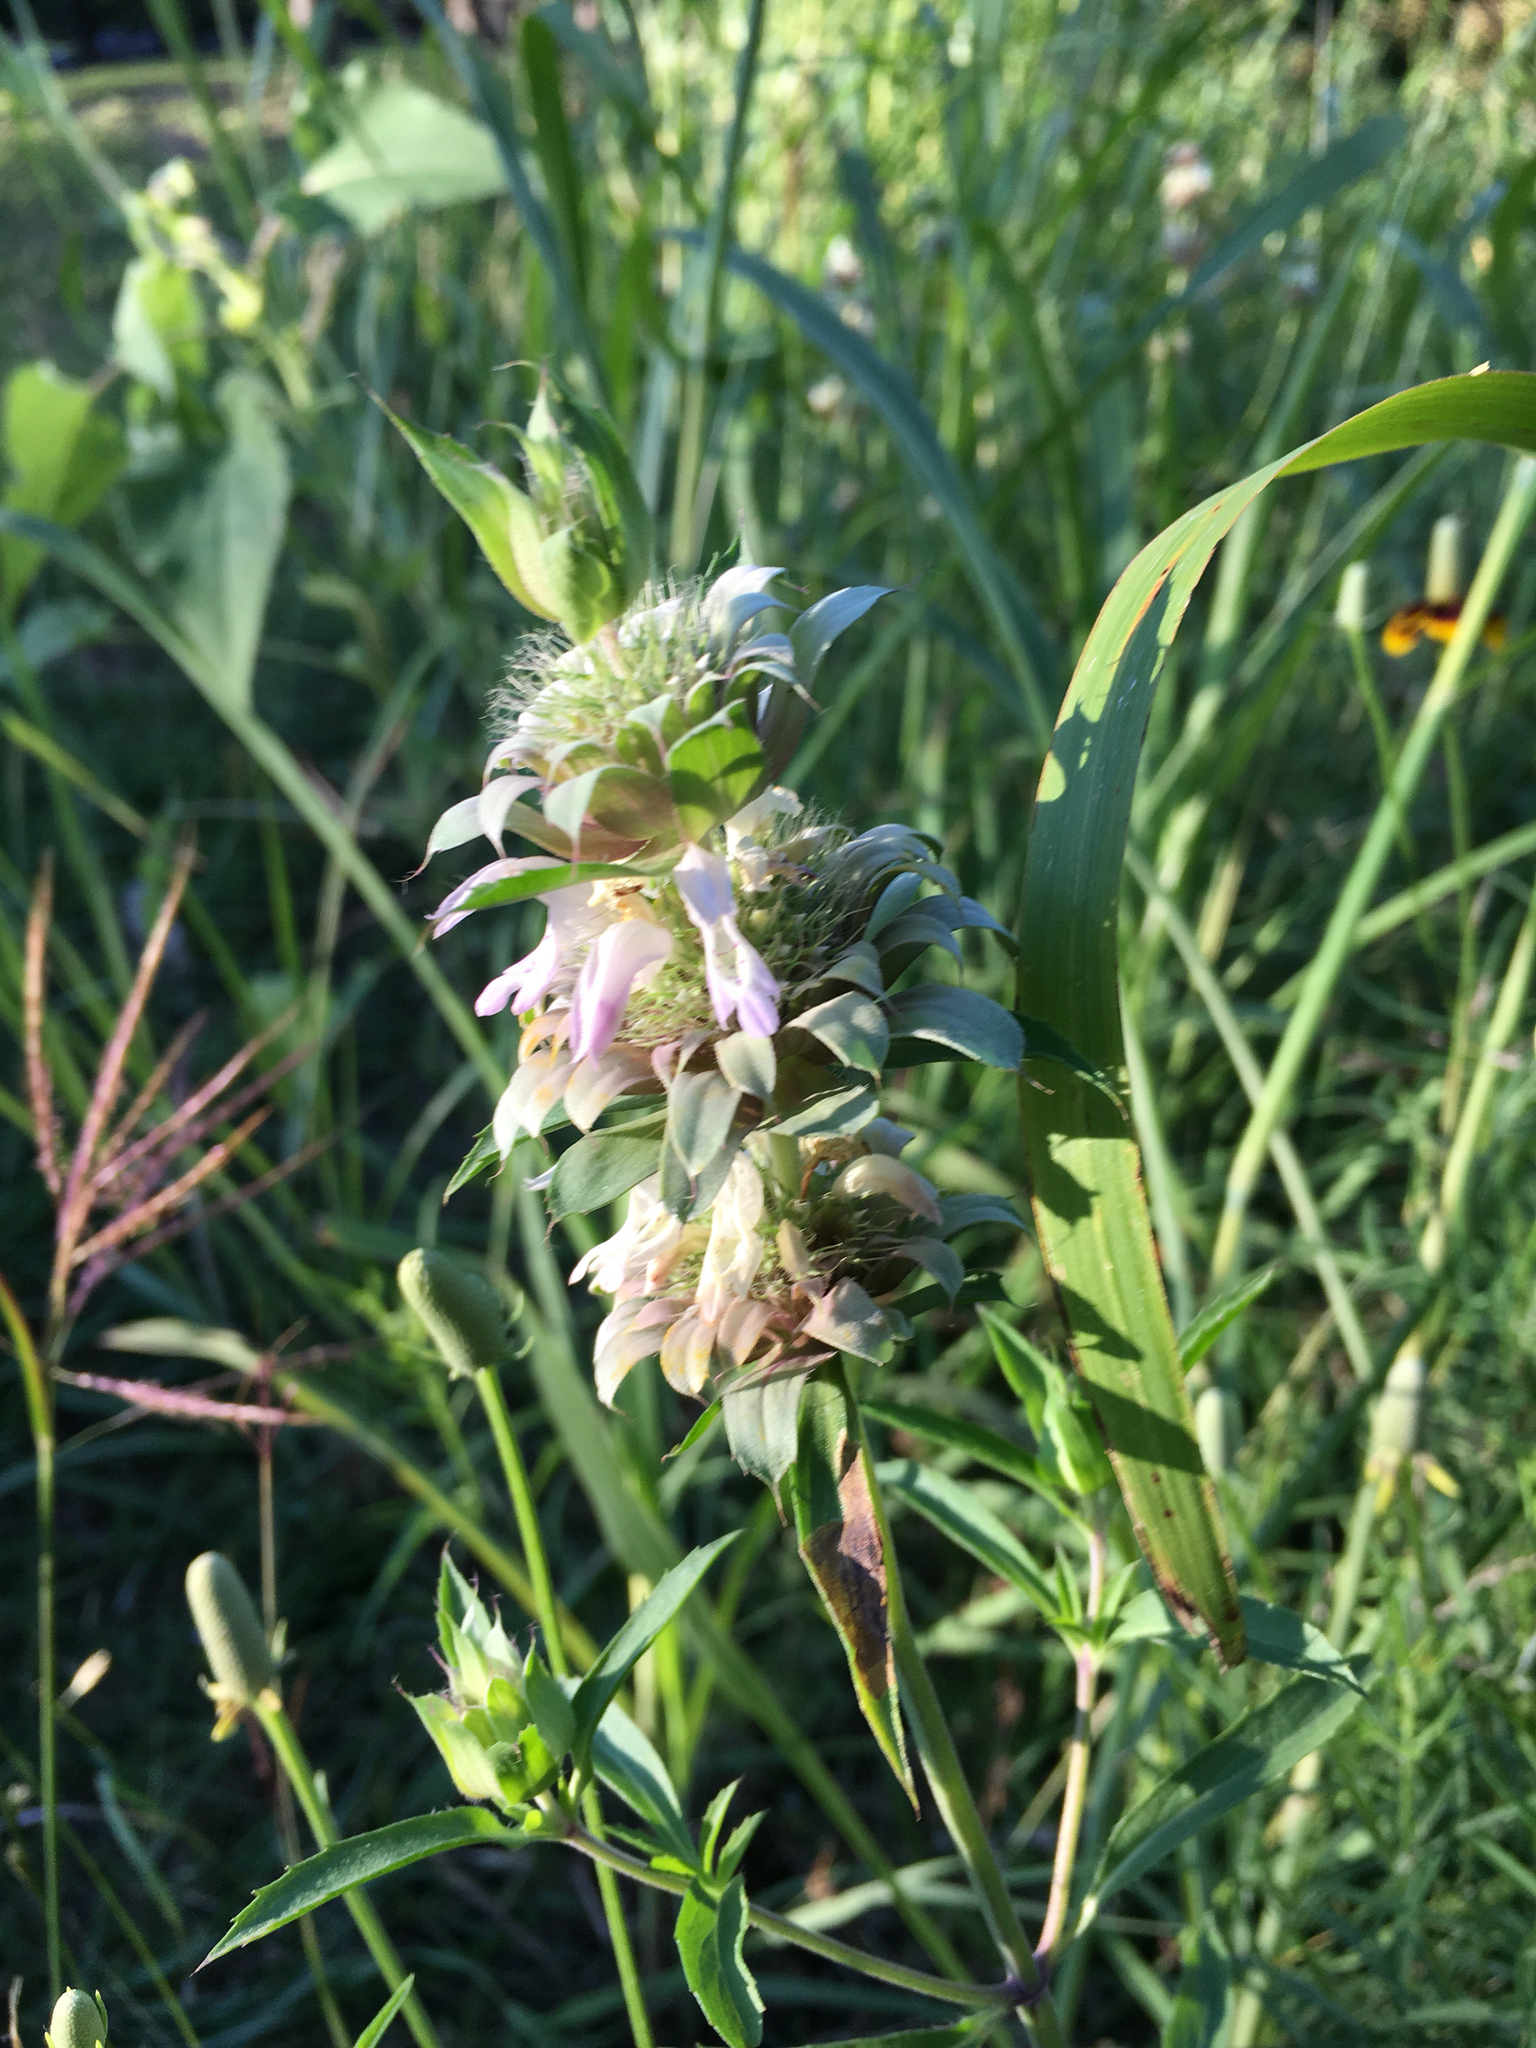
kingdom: Plantae
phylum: Tracheophyta
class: Magnoliopsida
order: Lamiales
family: Lamiaceae
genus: Monarda
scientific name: Monarda citriodora
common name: Lemon beebalm
